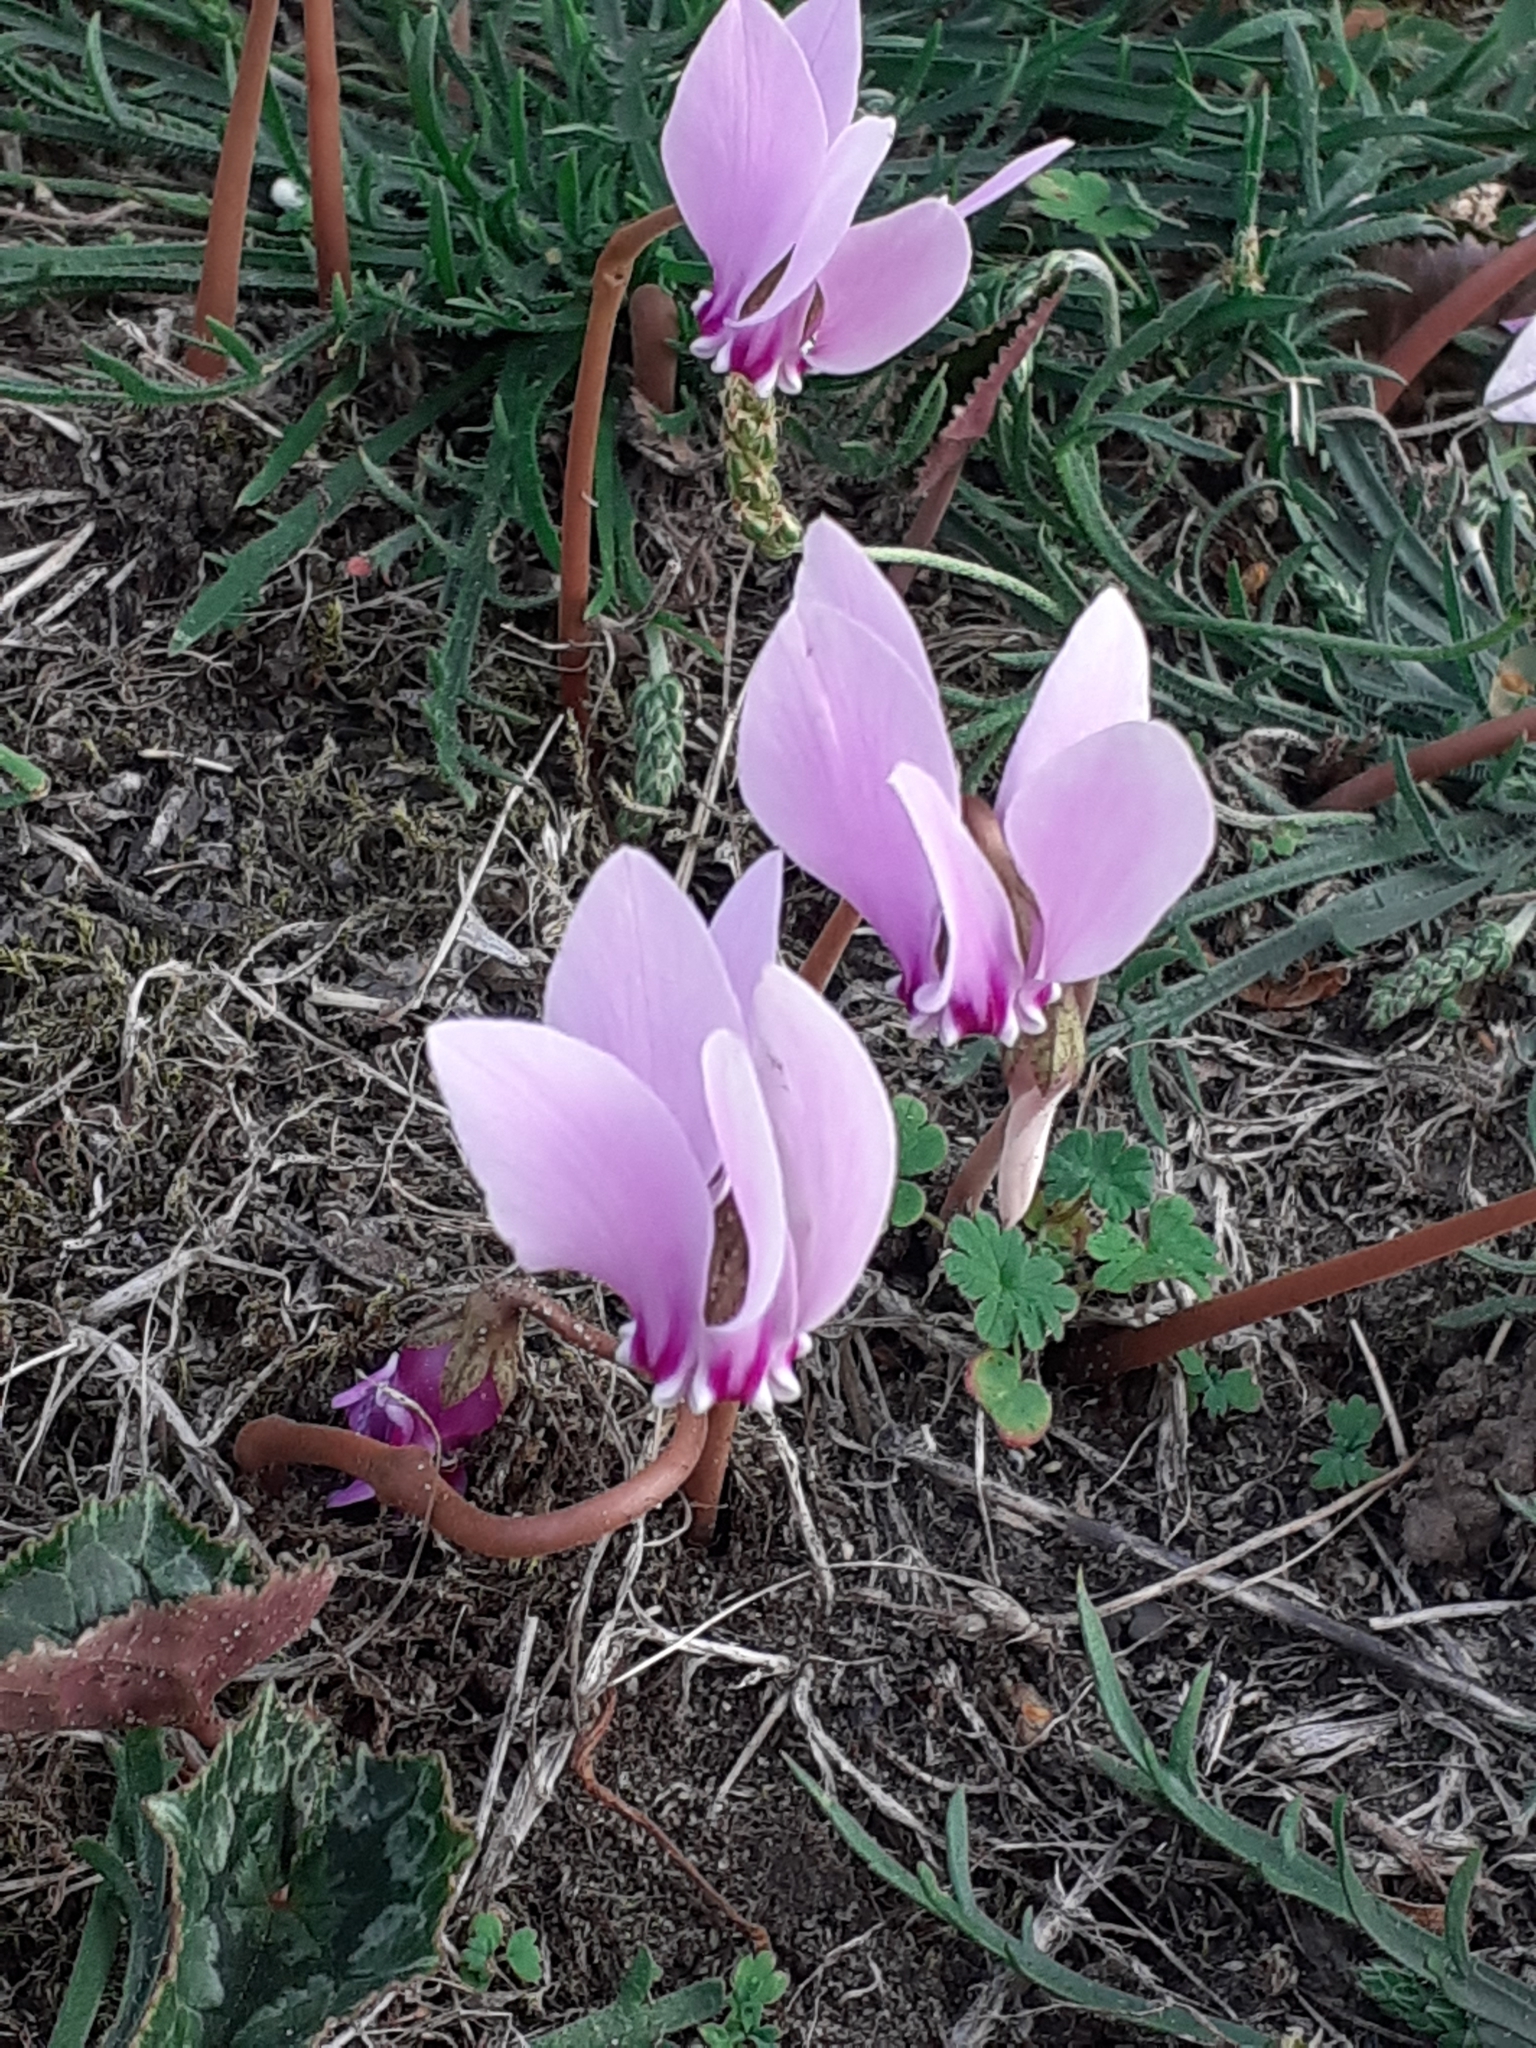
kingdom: Plantae
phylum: Tracheophyta
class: Magnoliopsida
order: Ericales
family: Primulaceae
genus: Cyclamen
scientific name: Cyclamen hederifolium
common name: Sowbread
